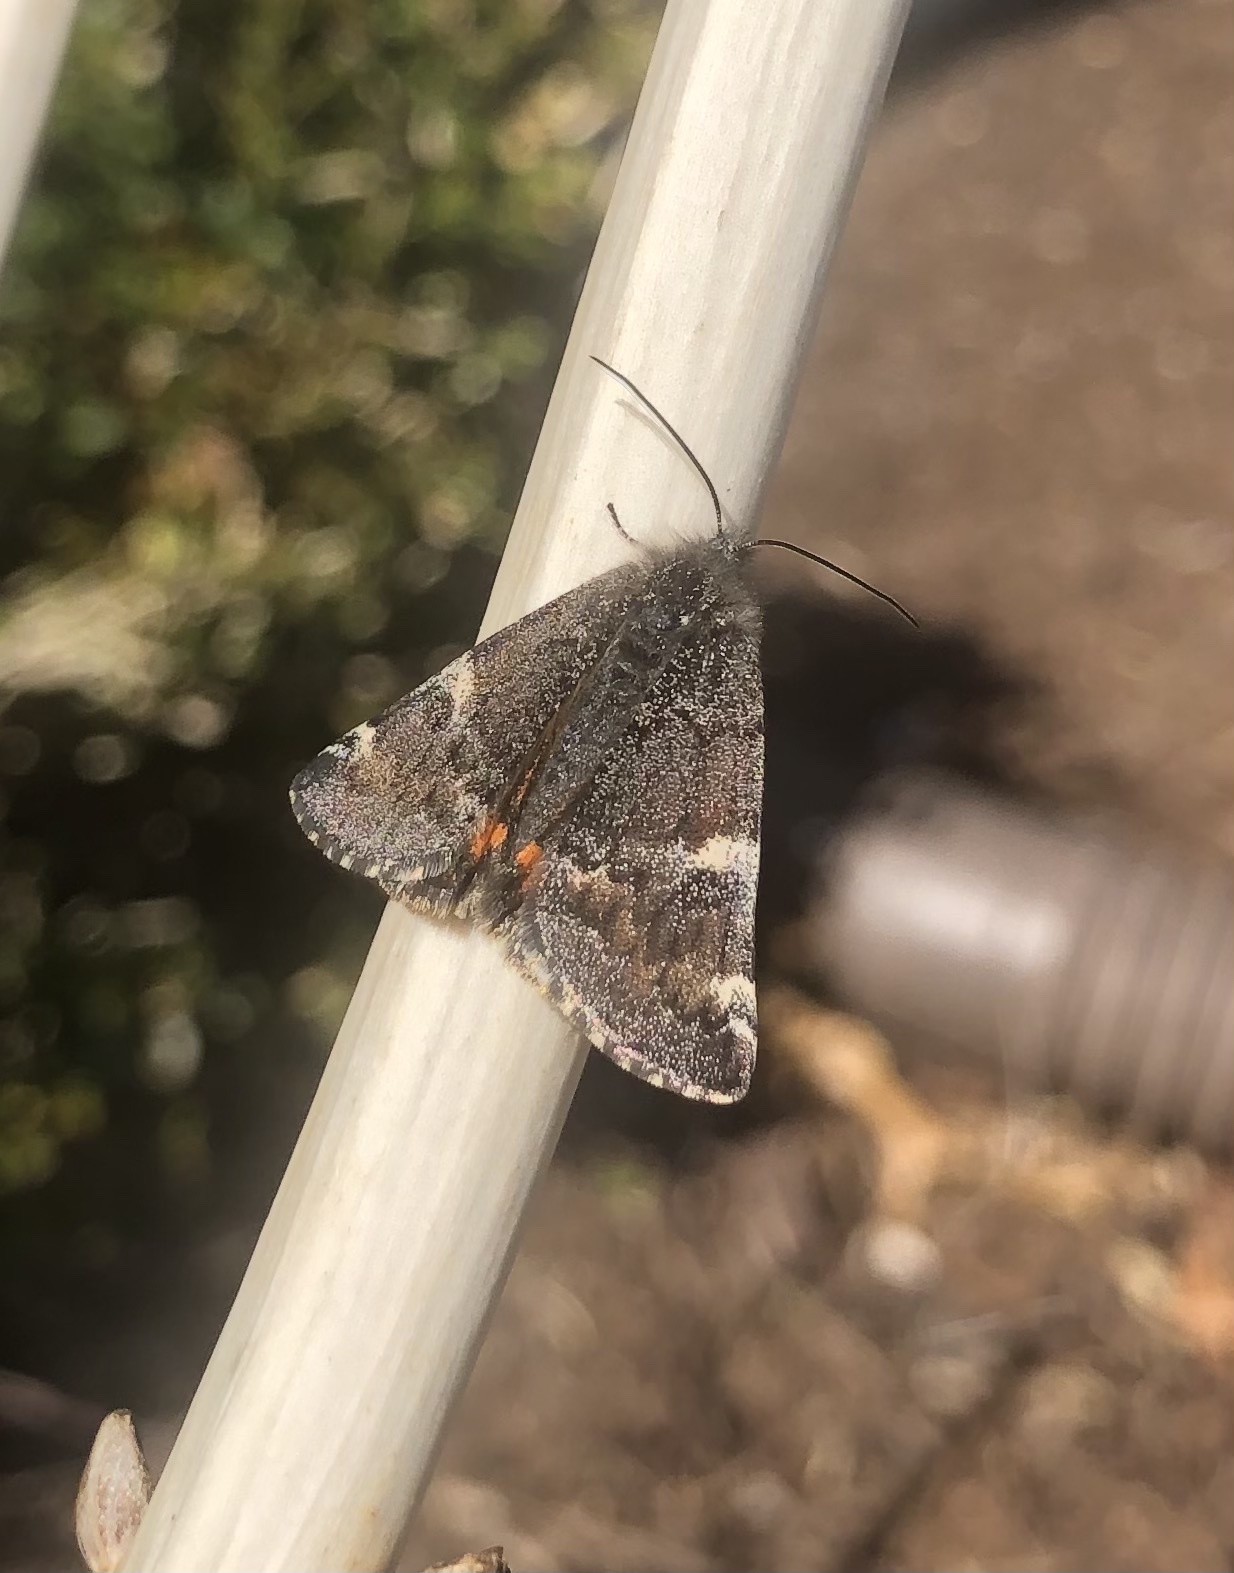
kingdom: Animalia
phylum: Arthropoda
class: Insecta
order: Lepidoptera
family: Geometridae
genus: Archiearis
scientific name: Archiearis infans
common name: First born geometer
